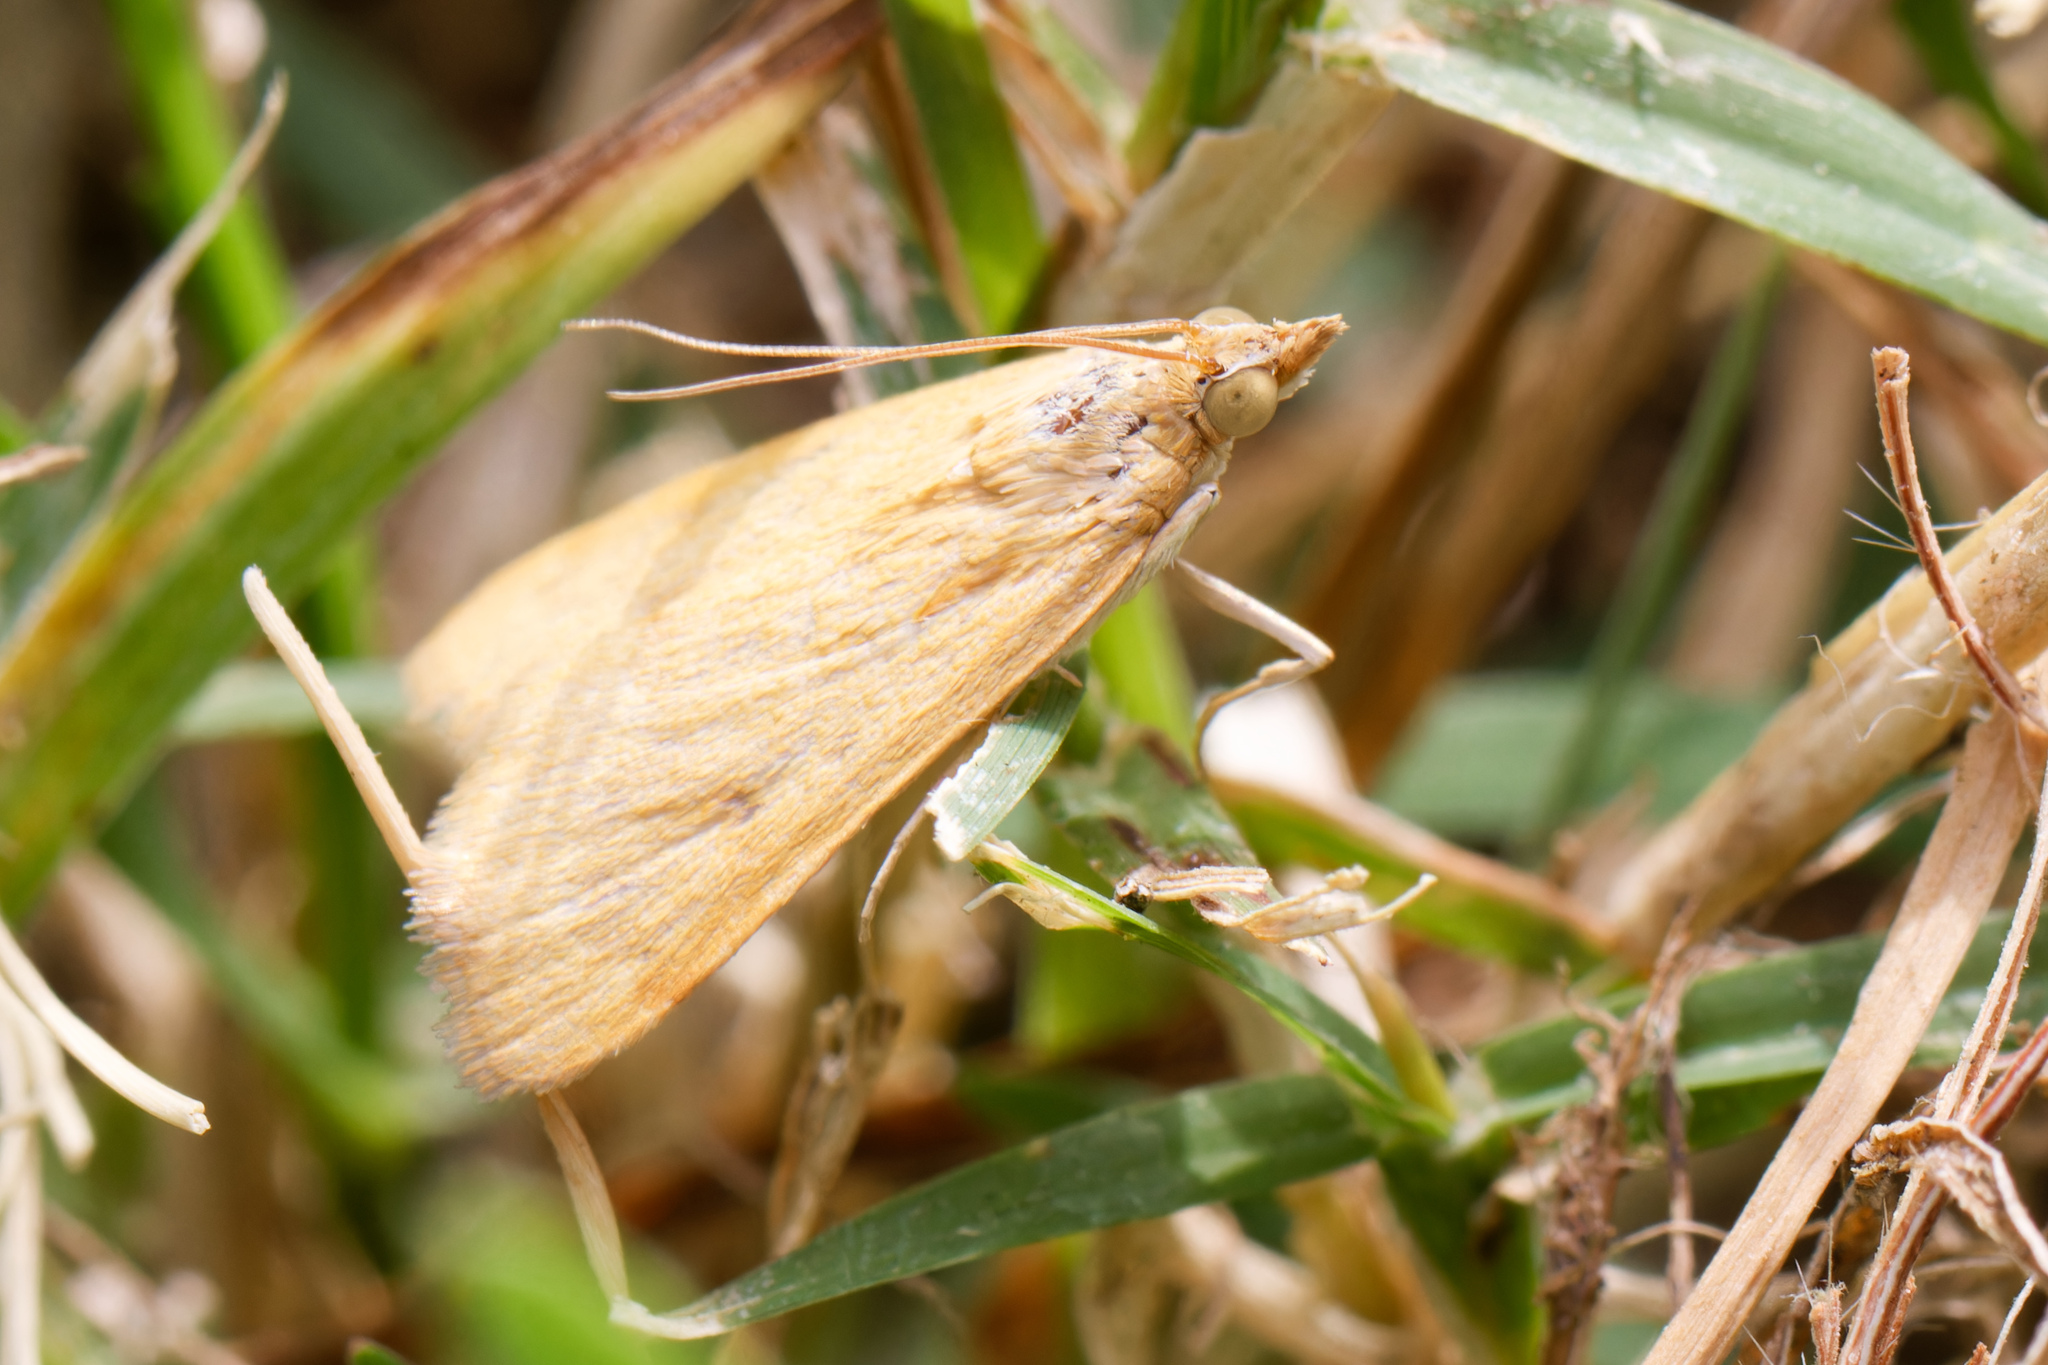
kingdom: Animalia
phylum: Arthropoda
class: Insecta
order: Lepidoptera
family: Crambidae
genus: Achyra
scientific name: Achyra rantalis
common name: Garden webworm
